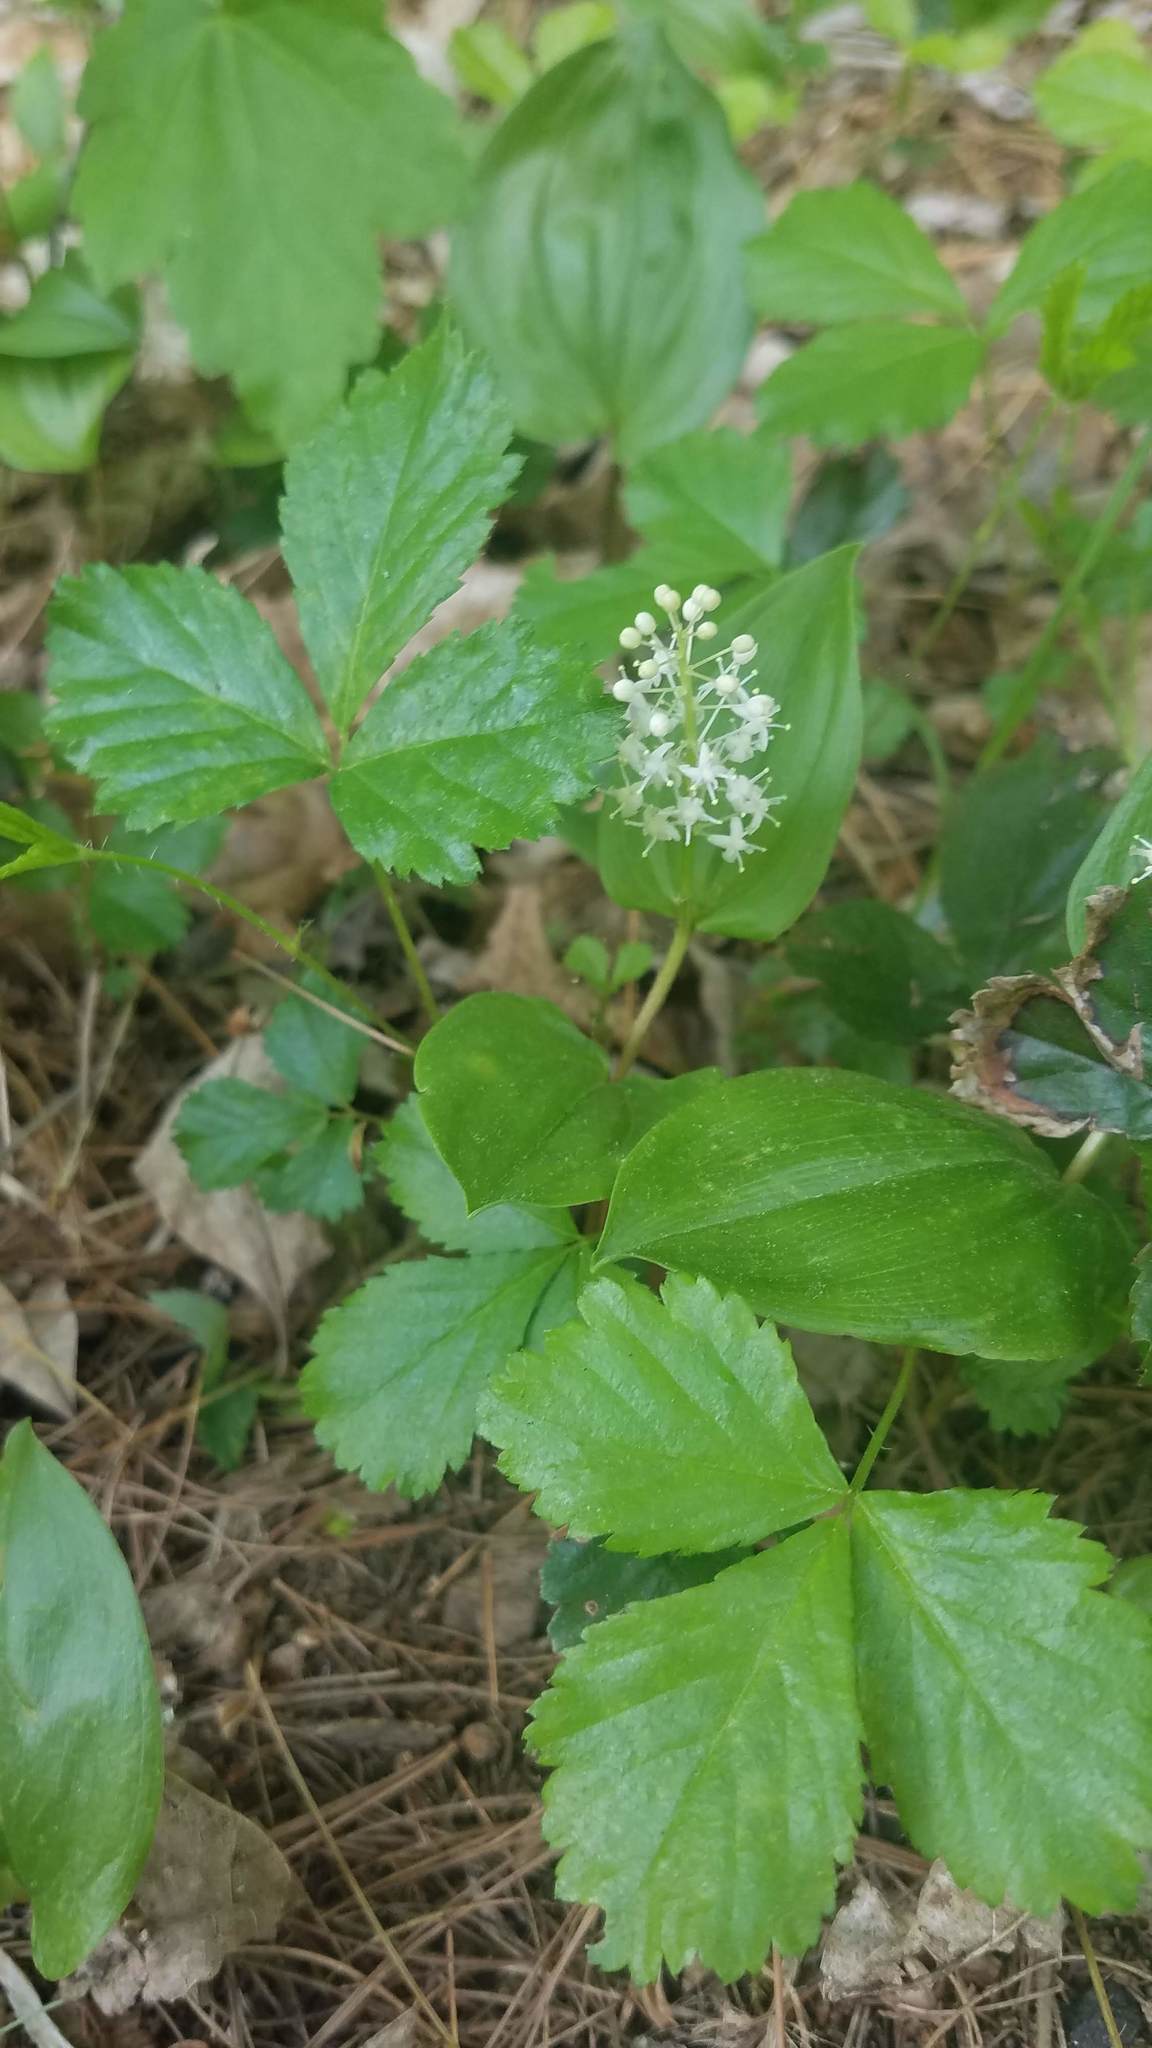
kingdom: Plantae
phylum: Tracheophyta
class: Liliopsida
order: Asparagales
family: Asparagaceae
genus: Maianthemum
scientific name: Maianthemum canadense
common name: False lily-of-the-valley
